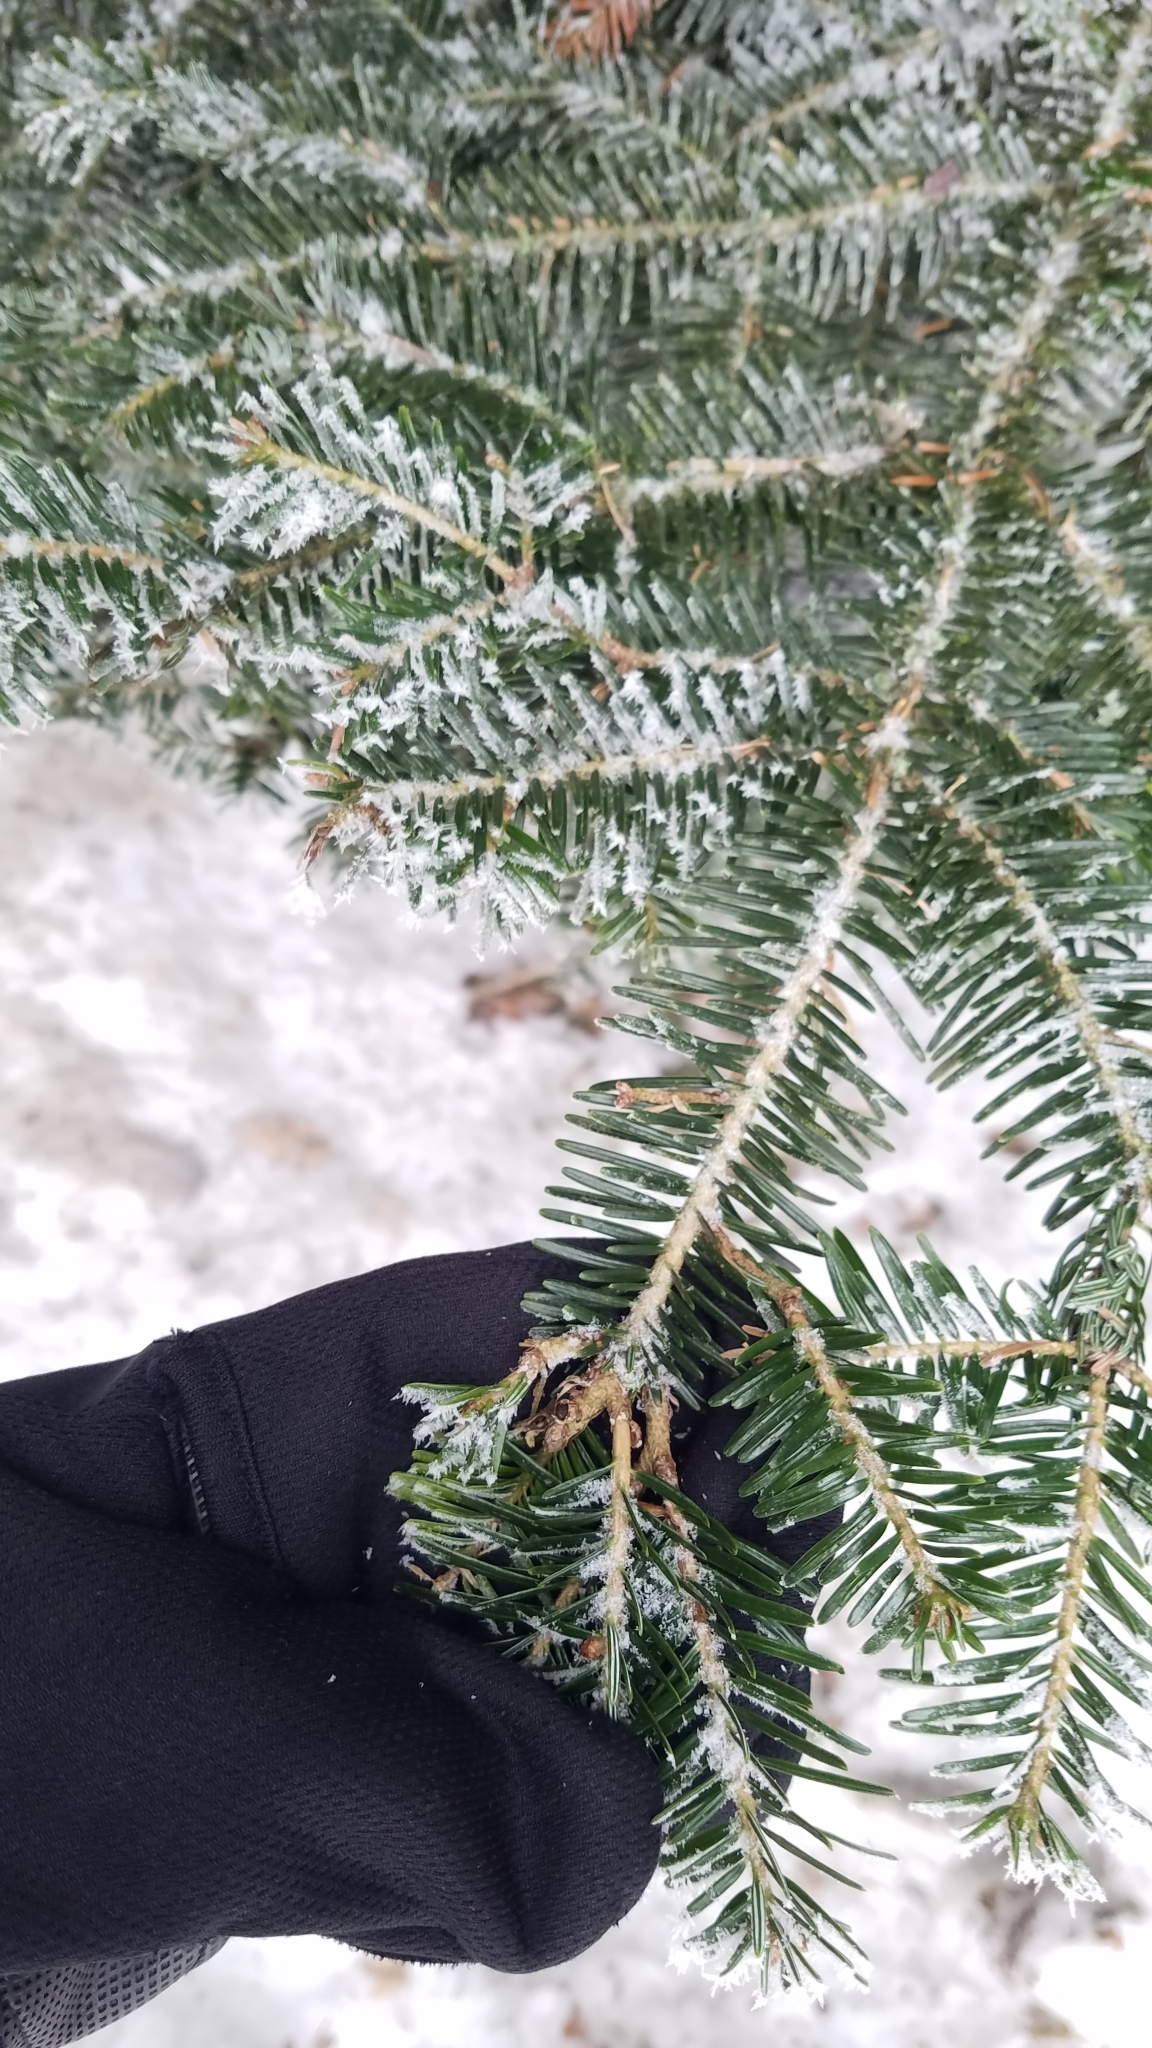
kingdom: Plantae
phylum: Tracheophyta
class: Pinopsida
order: Pinales
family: Pinaceae
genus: Abies
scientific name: Abies alba
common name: Silver fir
